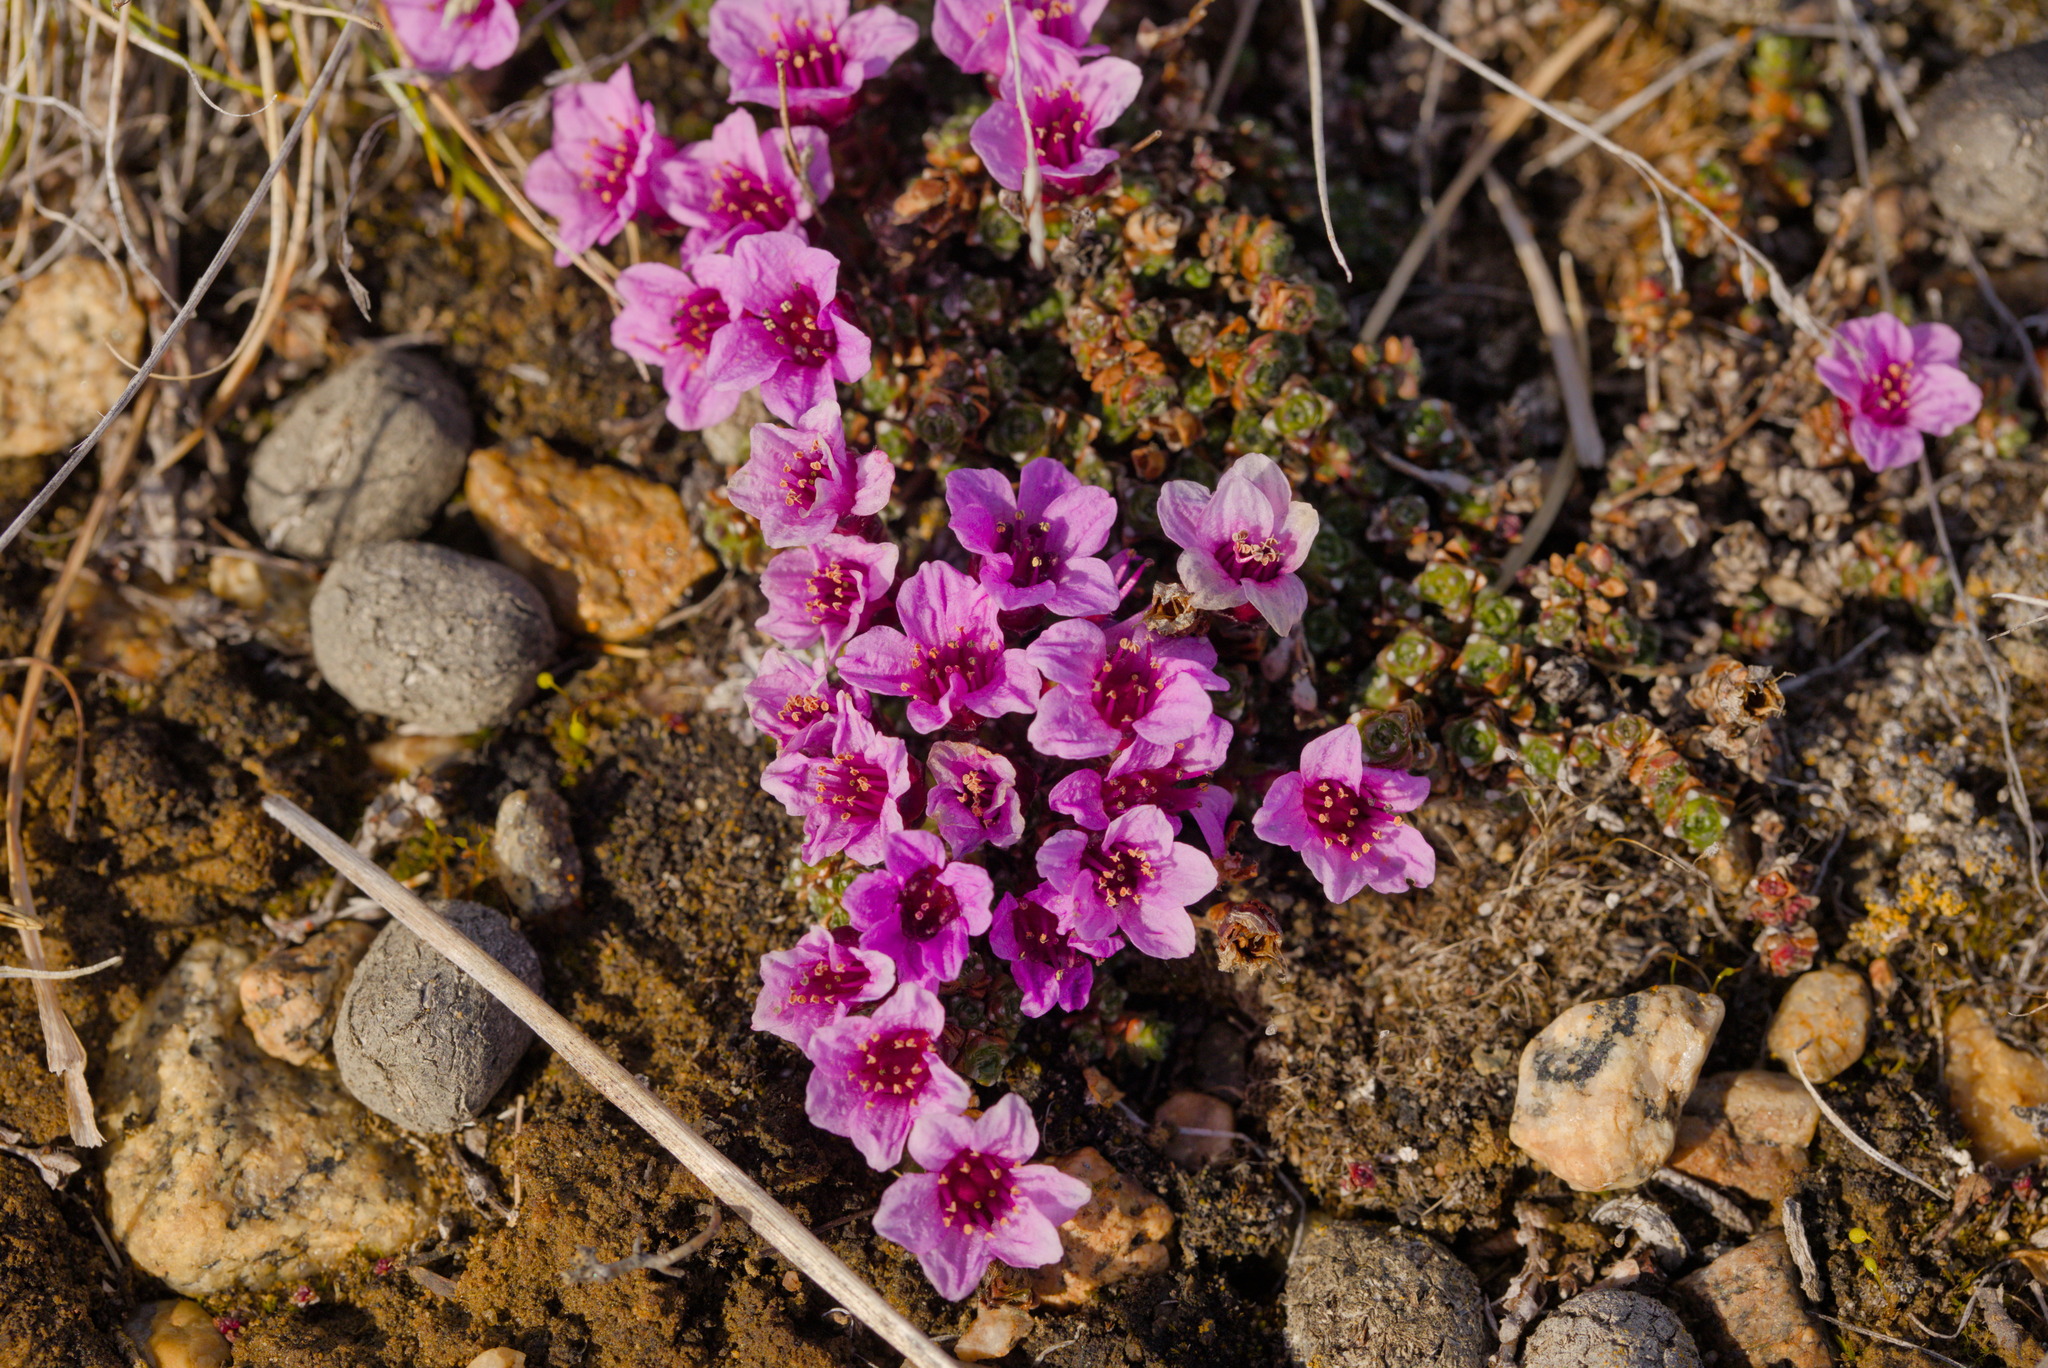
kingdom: Plantae
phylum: Tracheophyta
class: Magnoliopsida
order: Saxifragales
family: Saxifragaceae
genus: Saxifraga
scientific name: Saxifraga oppositifolia
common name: Purple saxifrage
